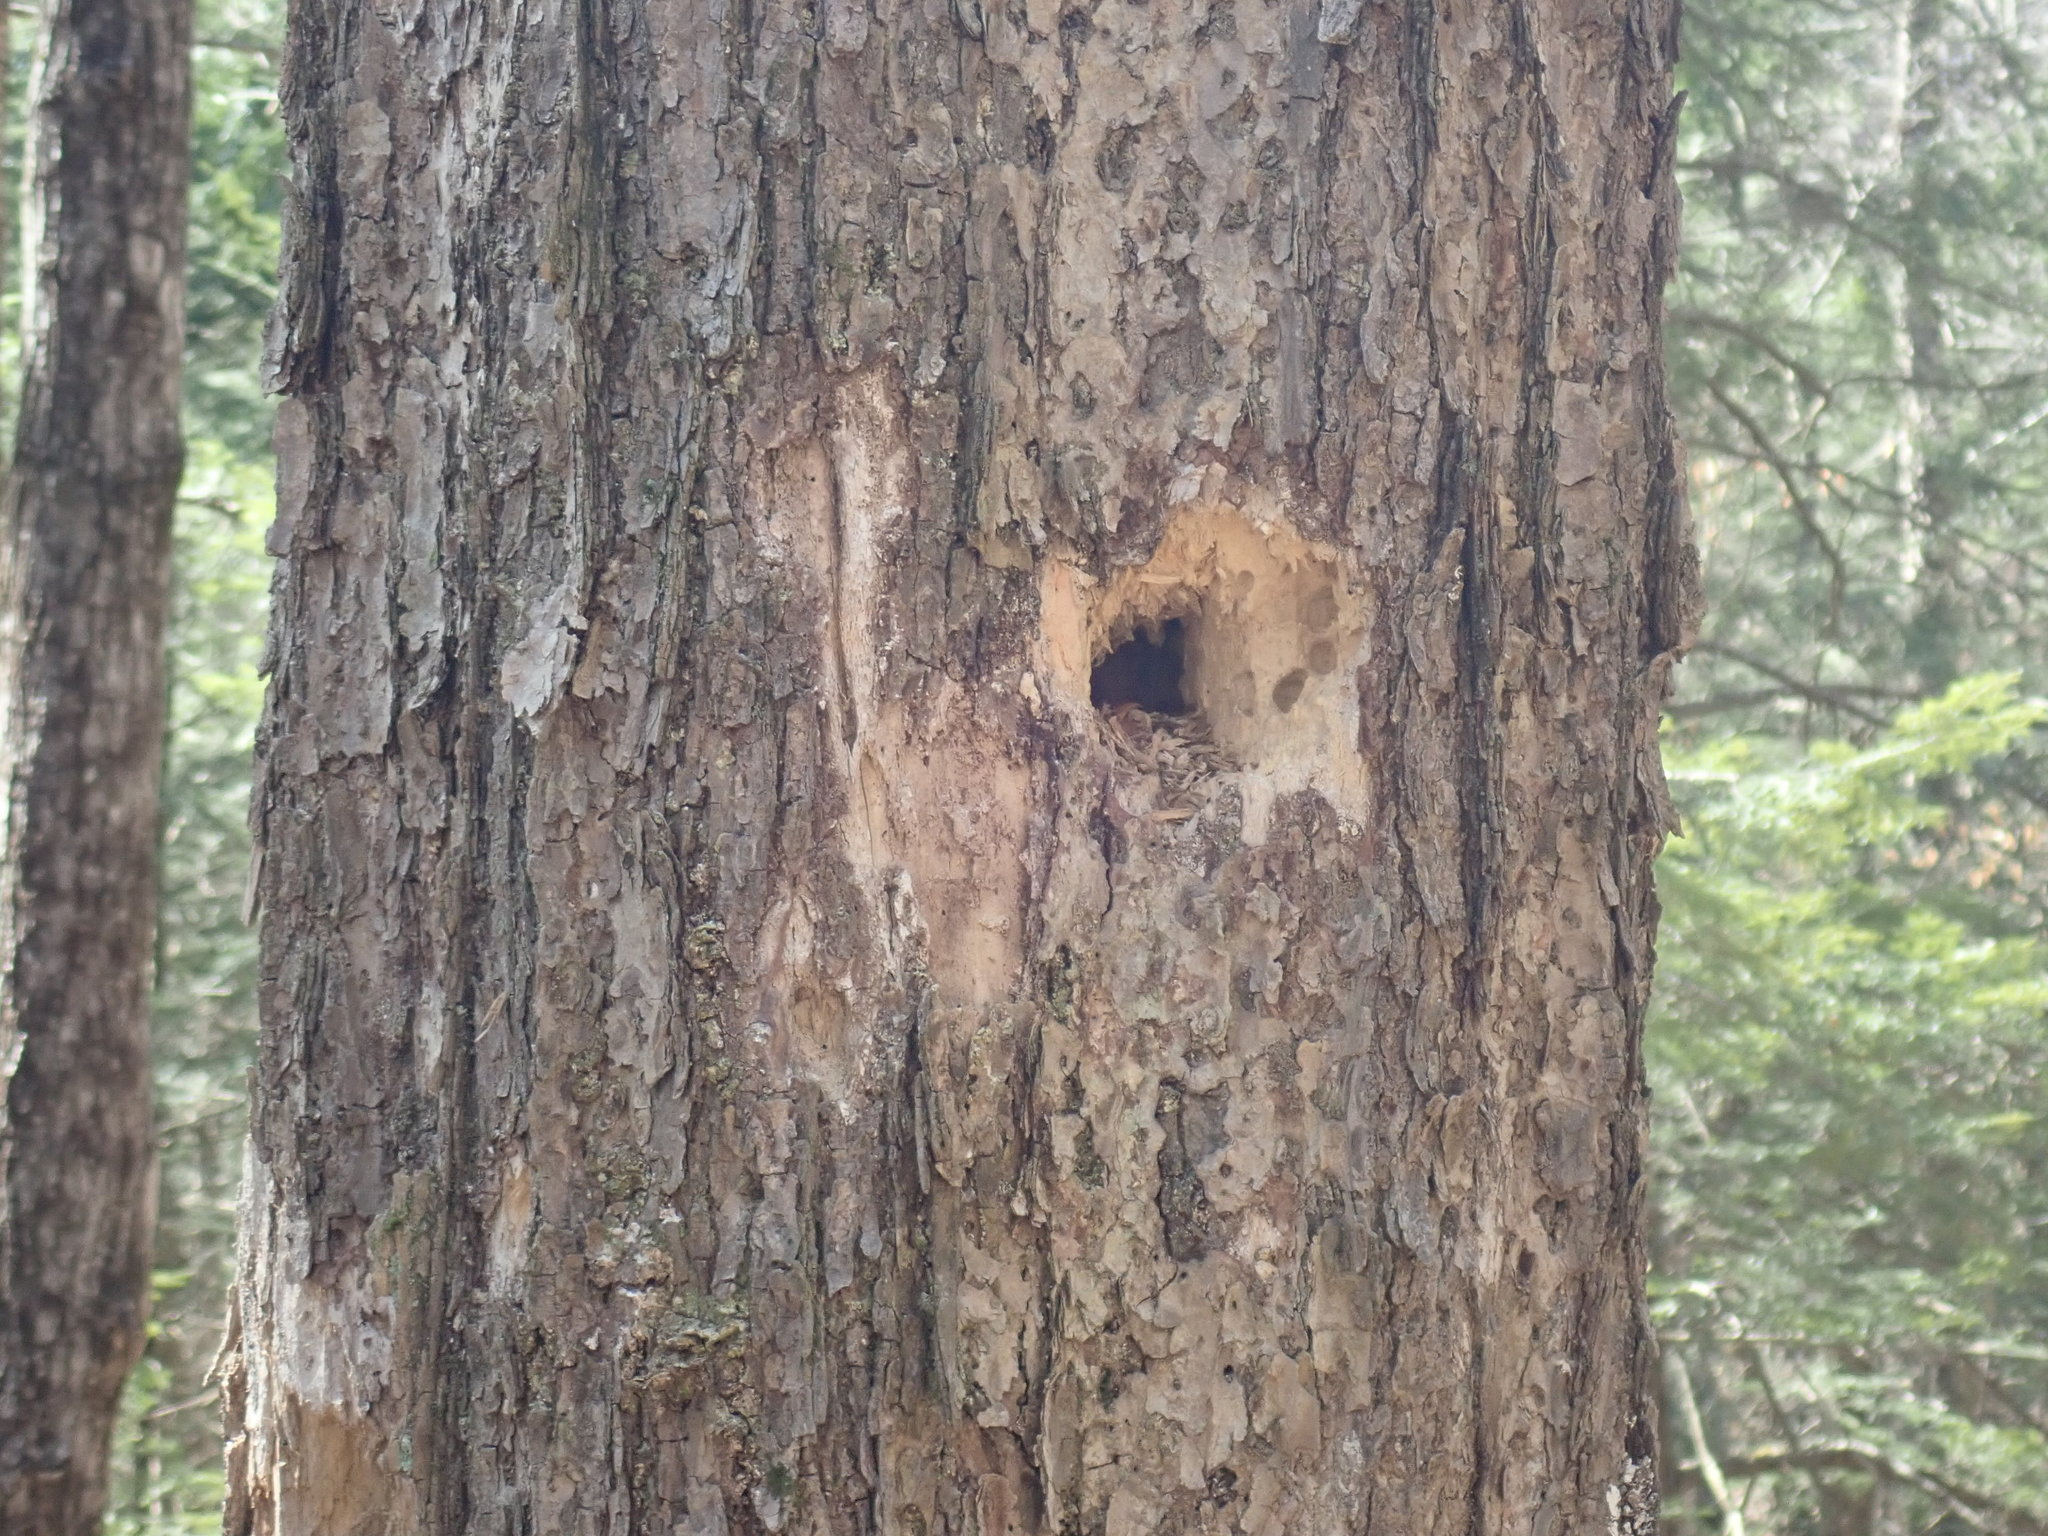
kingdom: Animalia
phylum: Chordata
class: Aves
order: Piciformes
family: Picidae
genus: Dryocopus
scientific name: Dryocopus pileatus
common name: Pileated woodpecker
